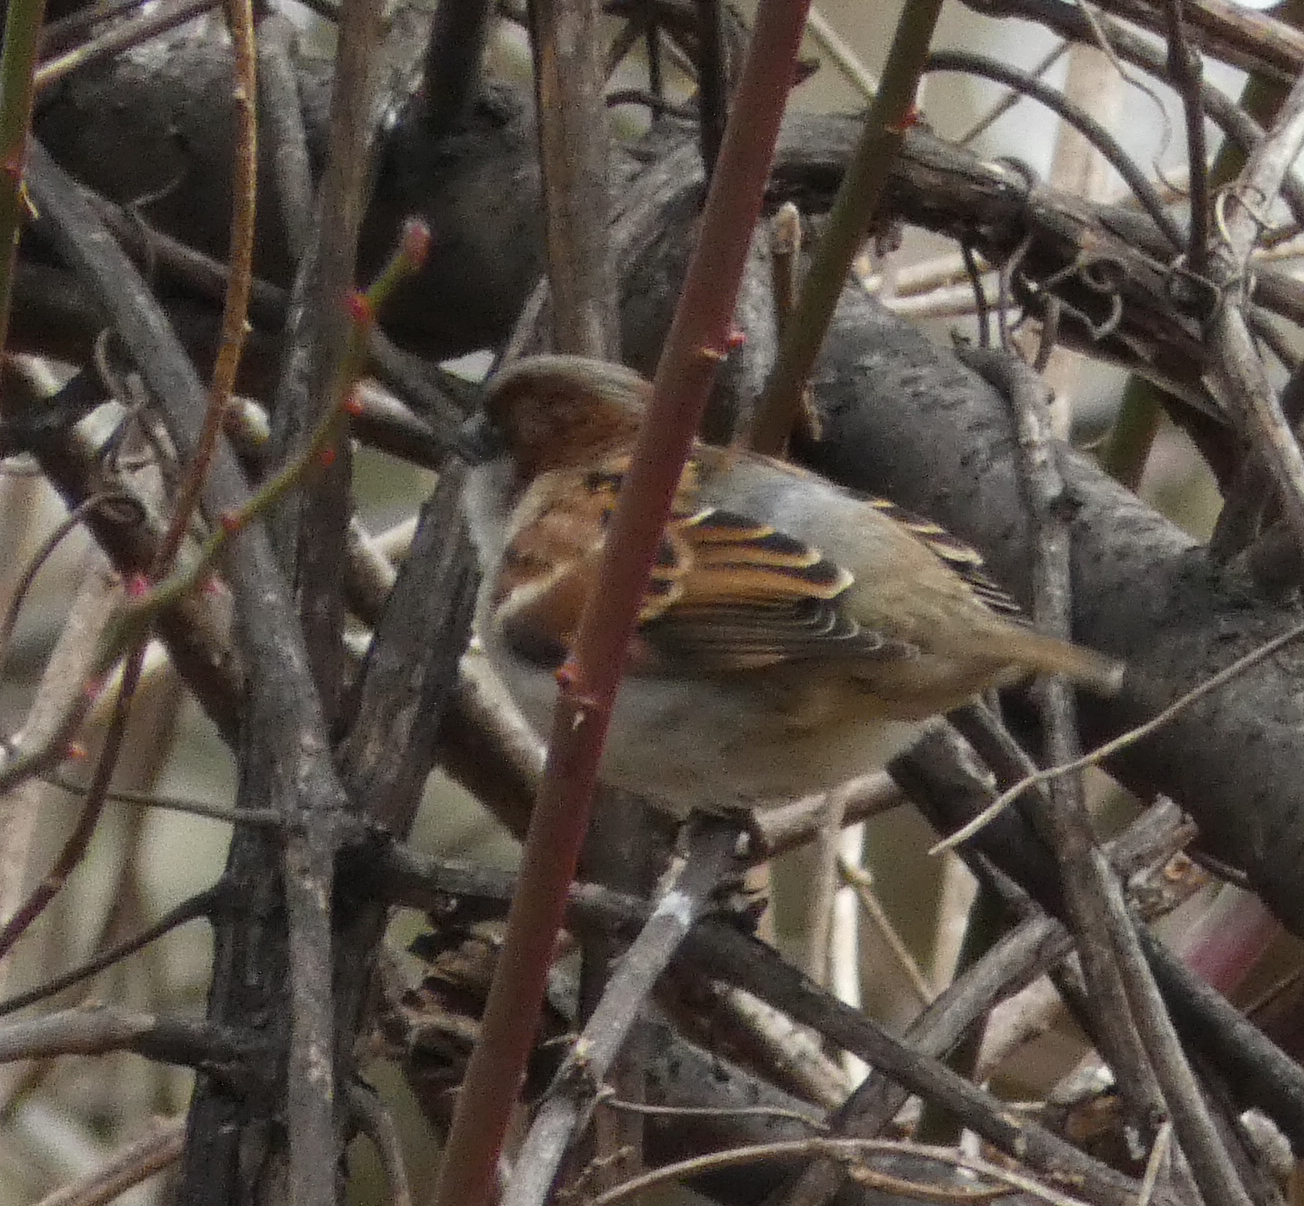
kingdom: Animalia
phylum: Chordata
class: Aves
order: Passeriformes
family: Passeridae
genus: Passer
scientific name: Passer domesticus
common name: House sparrow
